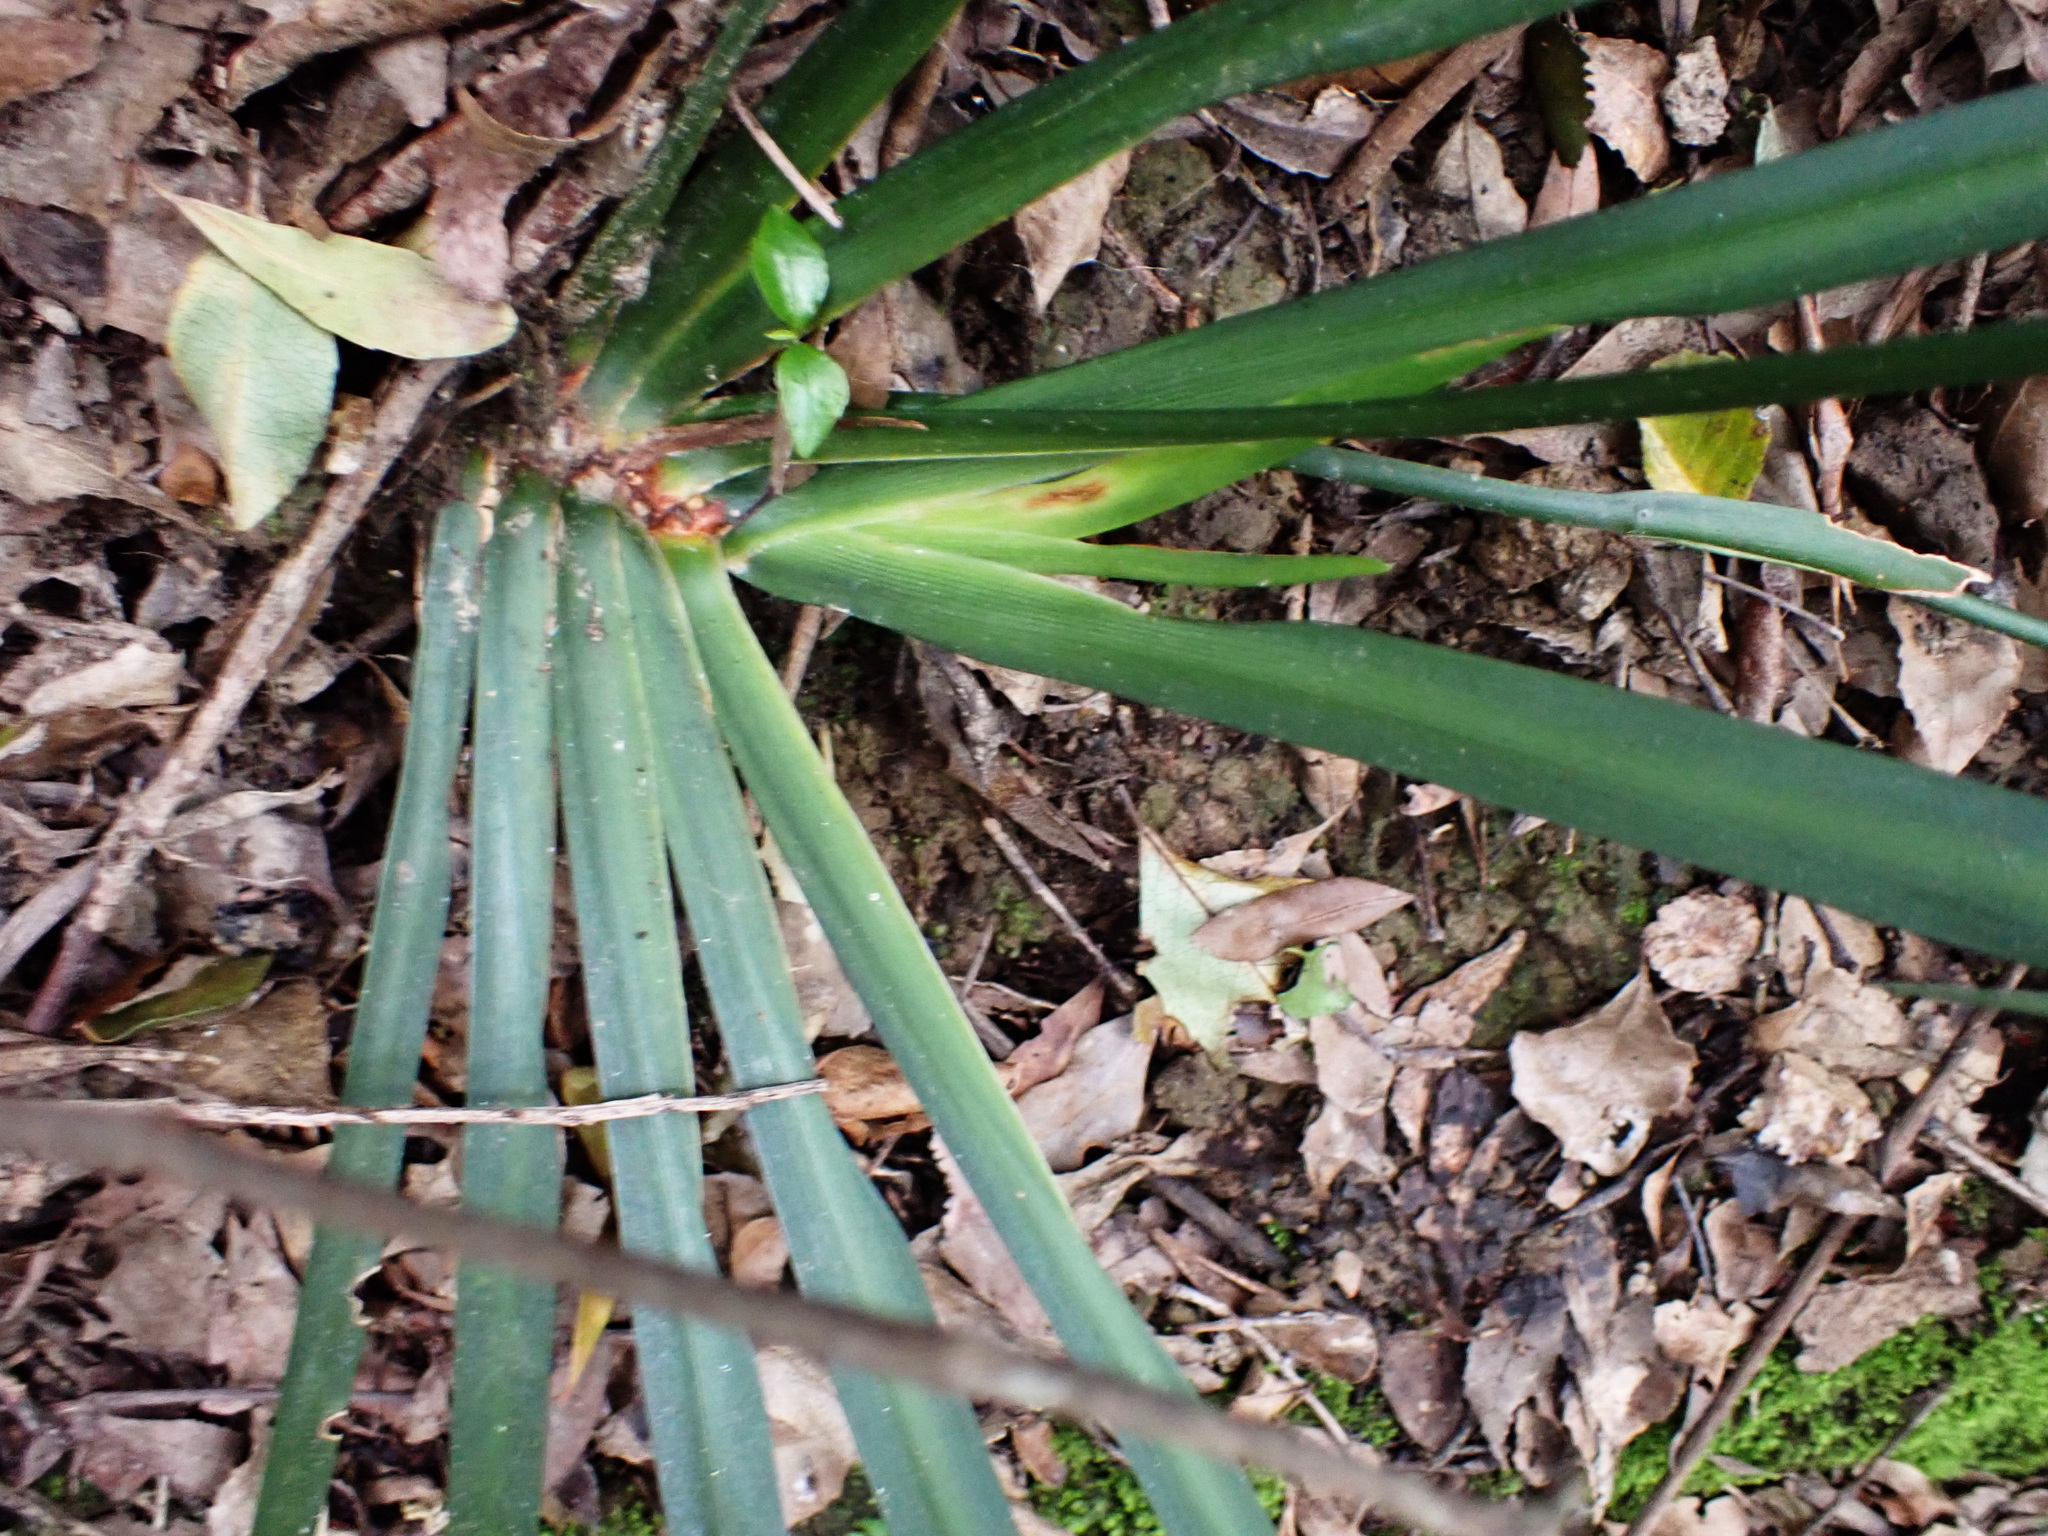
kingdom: Plantae
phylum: Tracheophyta
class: Liliopsida
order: Asparagales
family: Iridaceae
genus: Dietes
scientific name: Dietes iridioides
